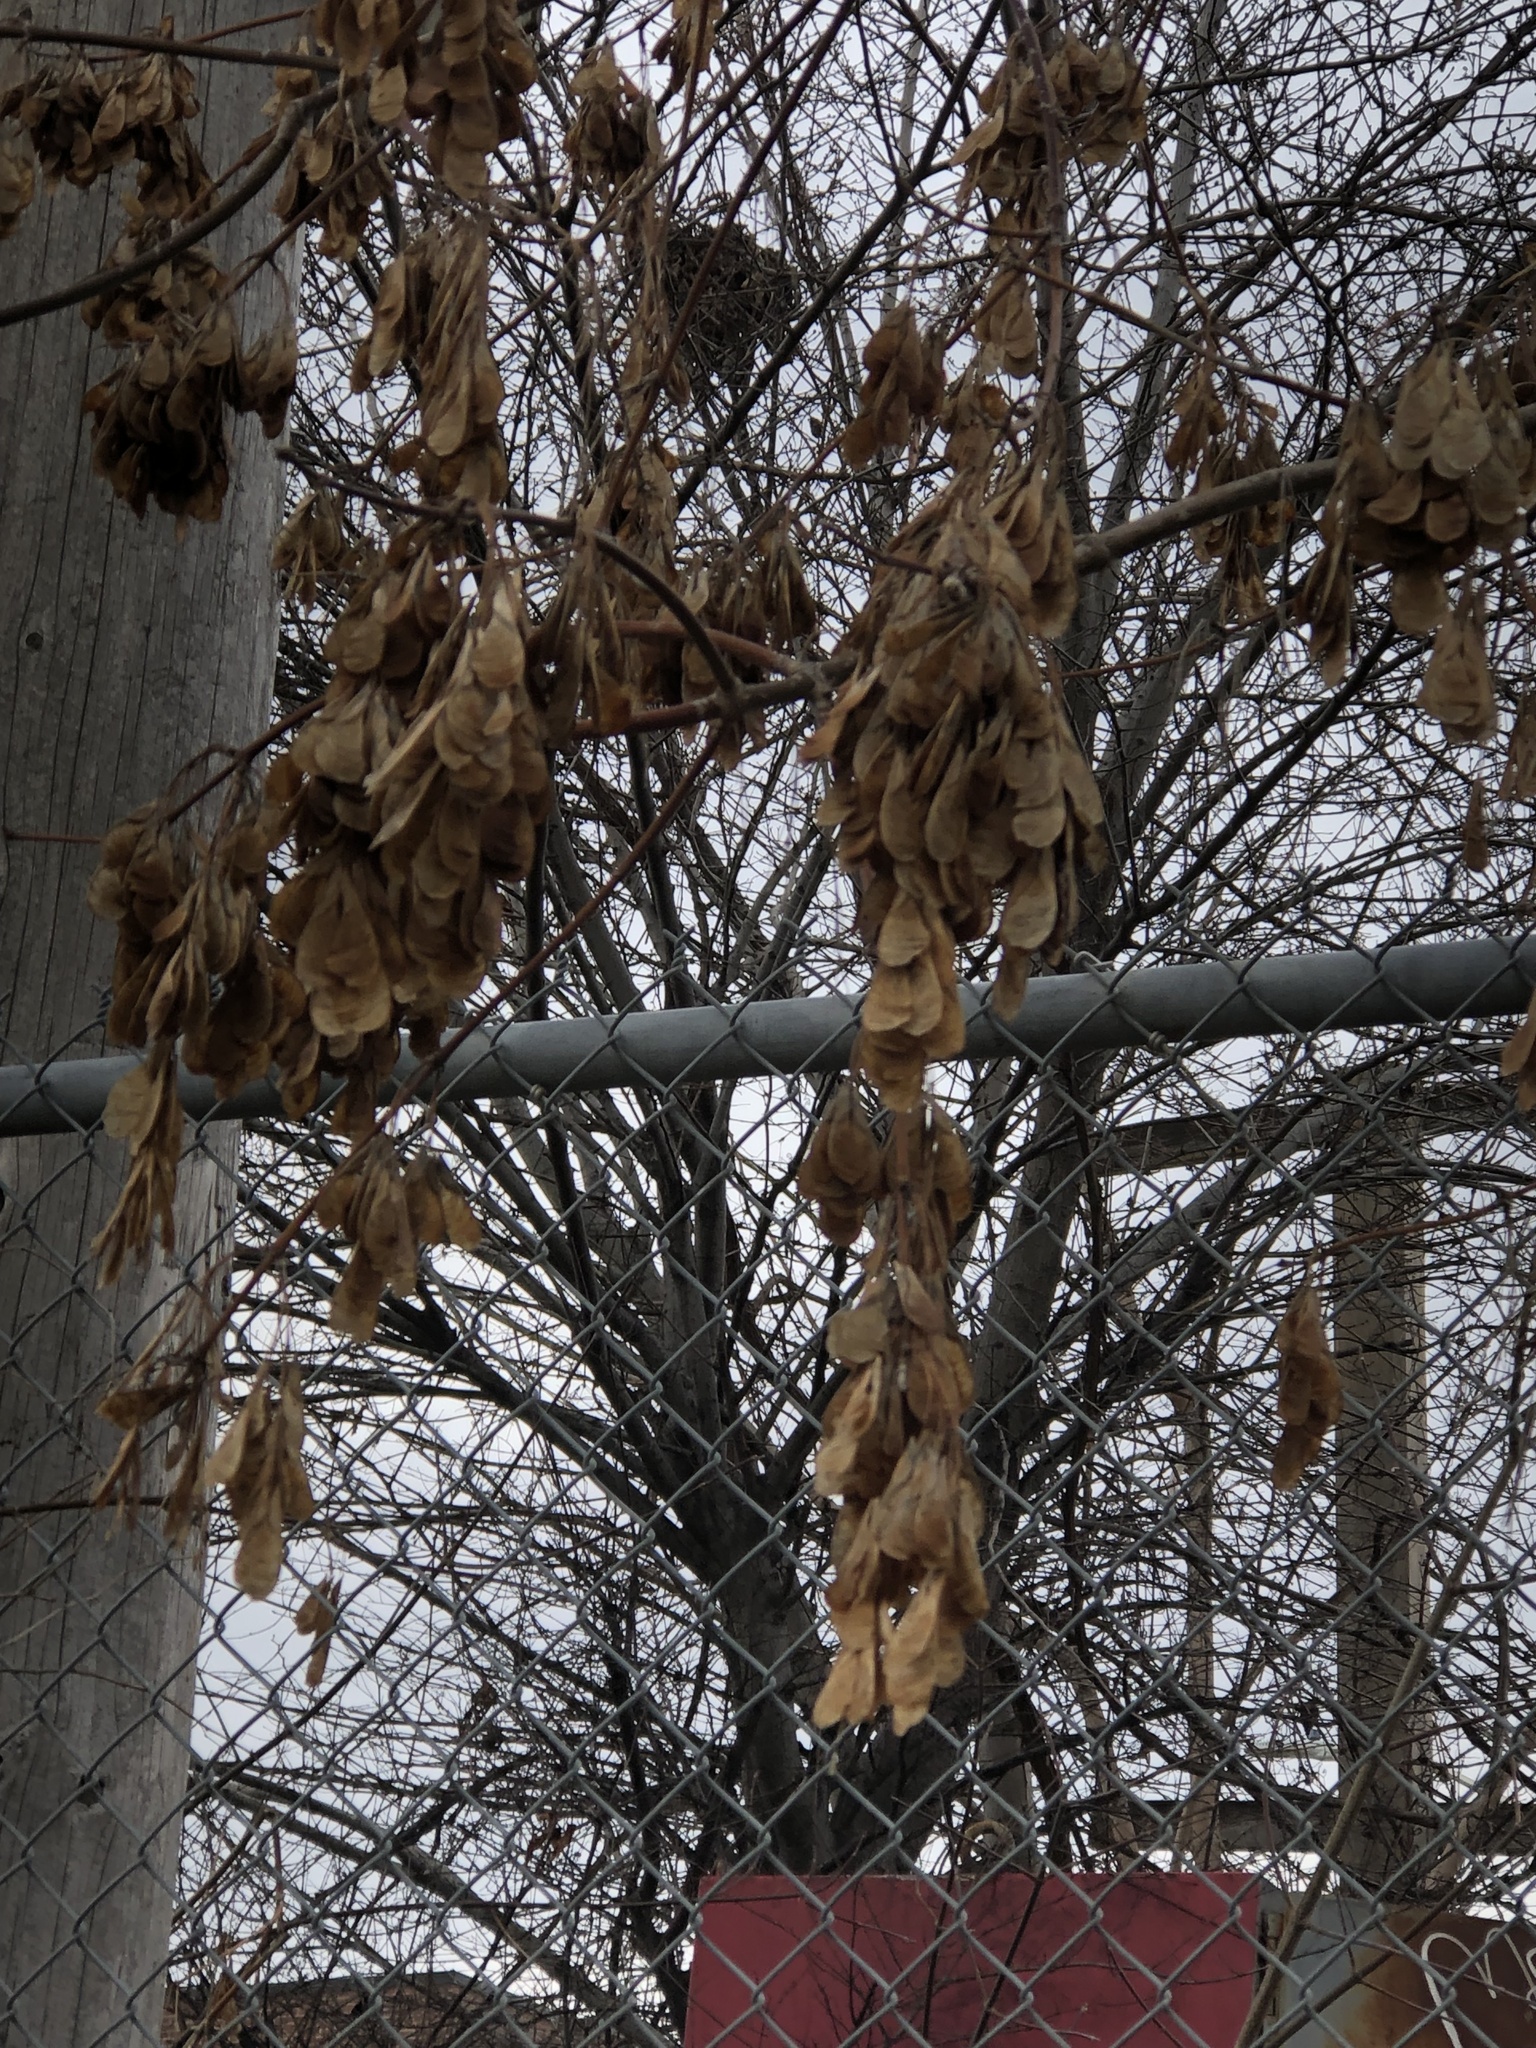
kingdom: Plantae
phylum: Tracheophyta
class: Magnoliopsida
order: Sapindales
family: Sapindaceae
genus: Acer
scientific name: Acer negundo
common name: Ashleaf maple
